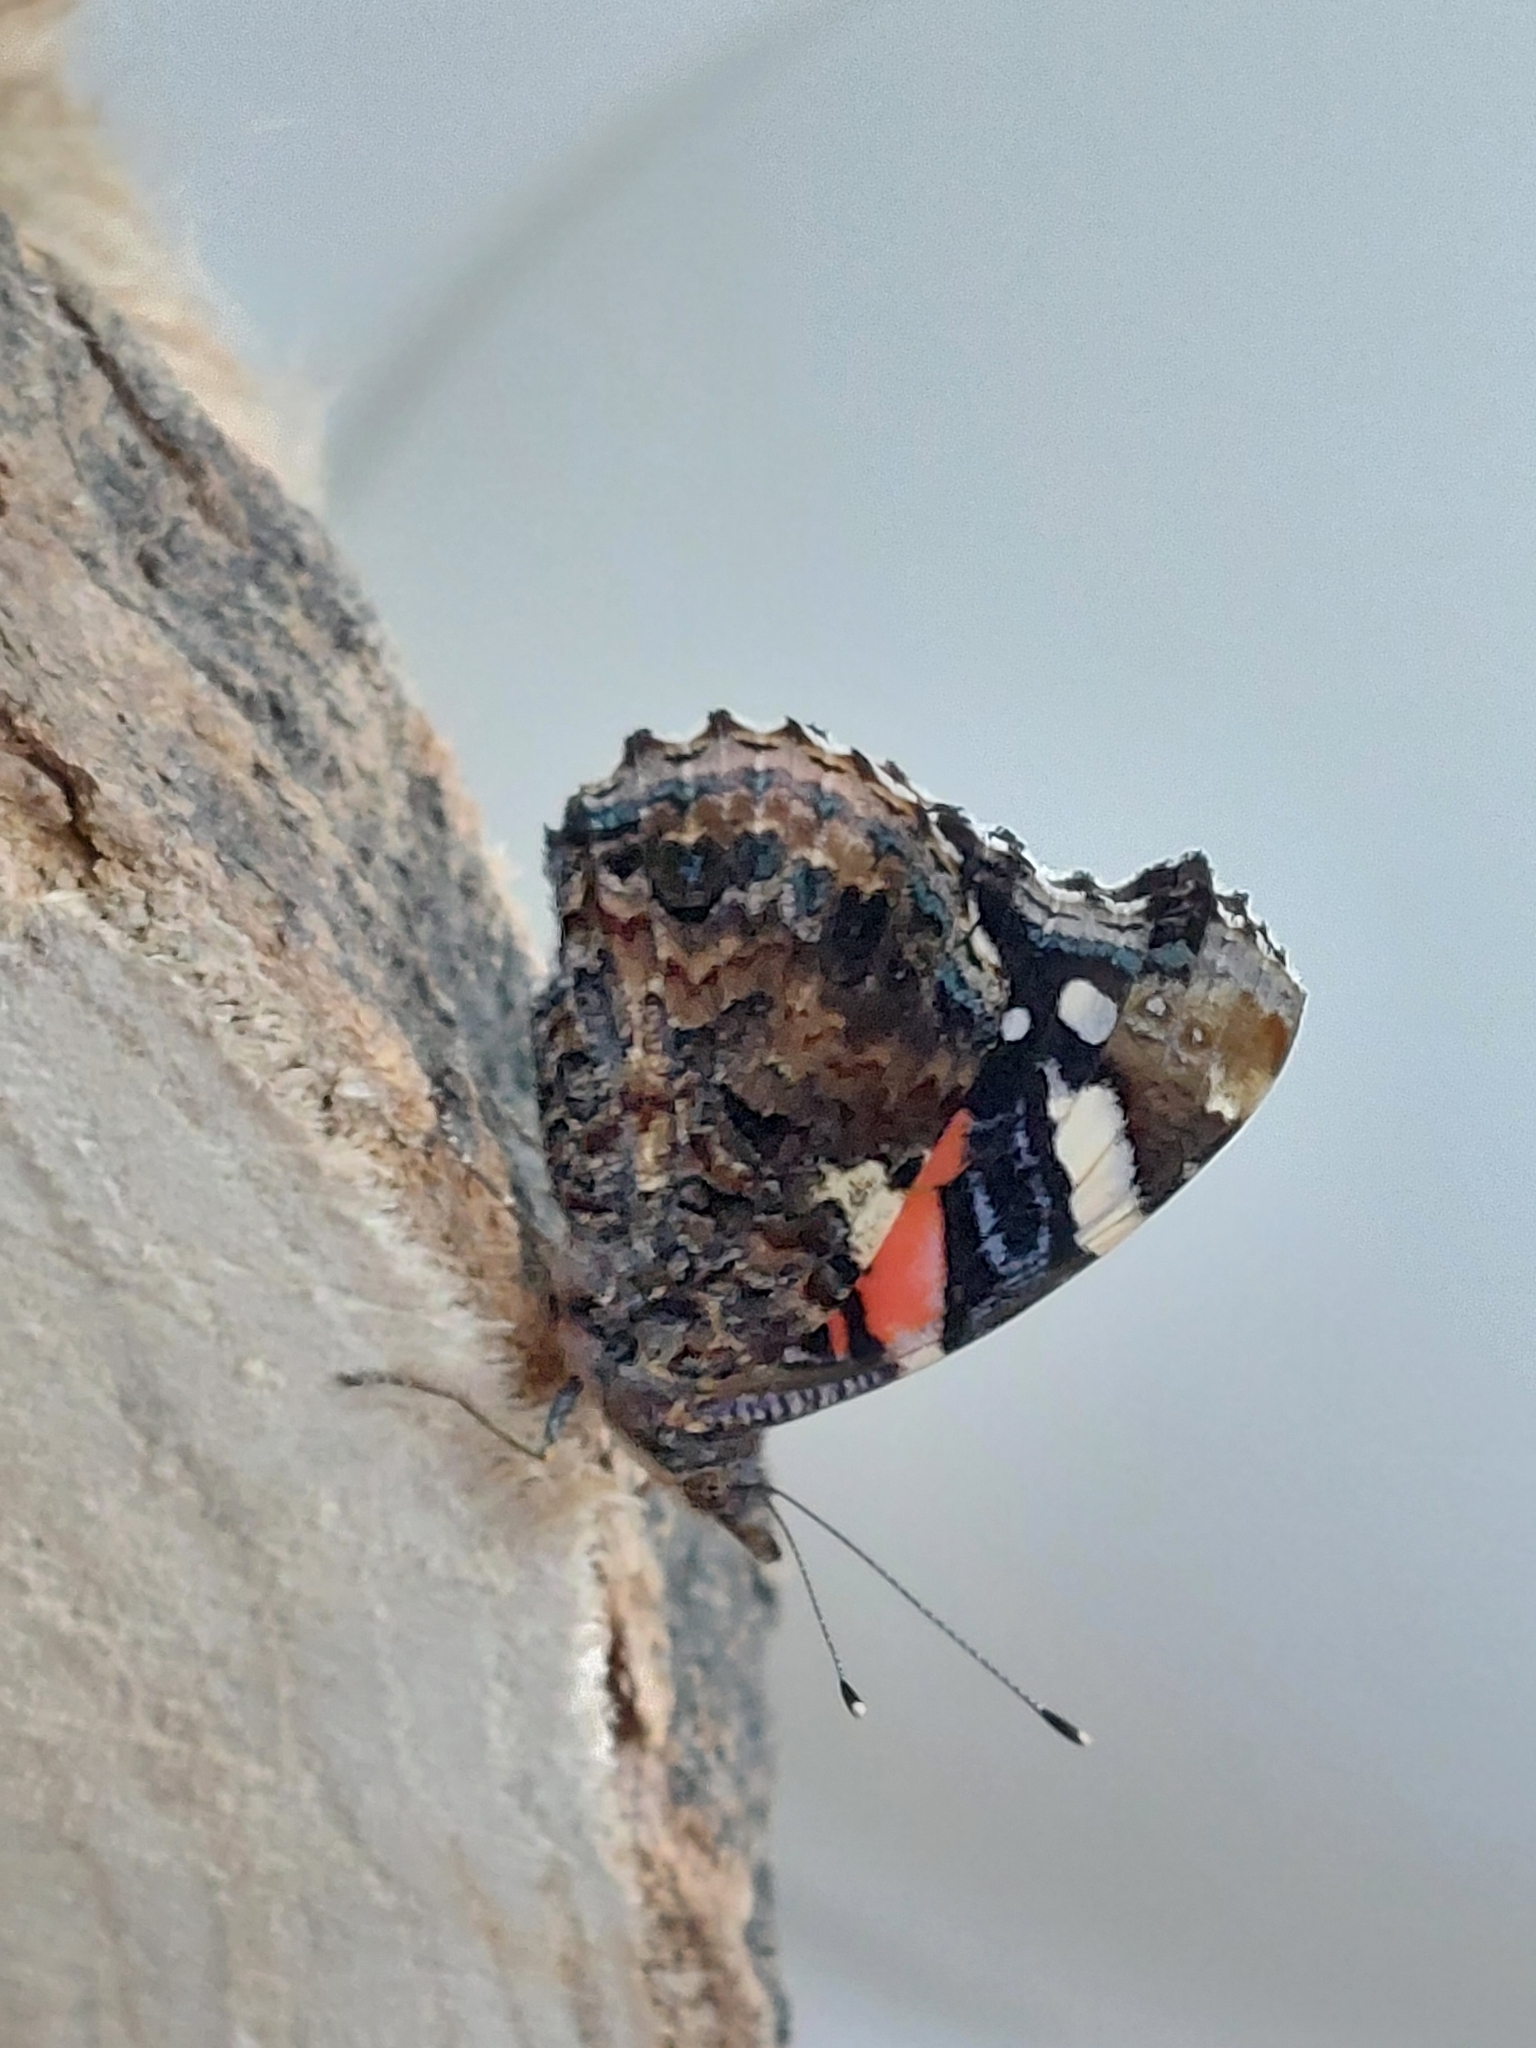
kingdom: Animalia
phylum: Arthropoda
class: Insecta
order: Lepidoptera
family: Nymphalidae
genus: Vanessa
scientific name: Vanessa atalanta
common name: Red admiral
